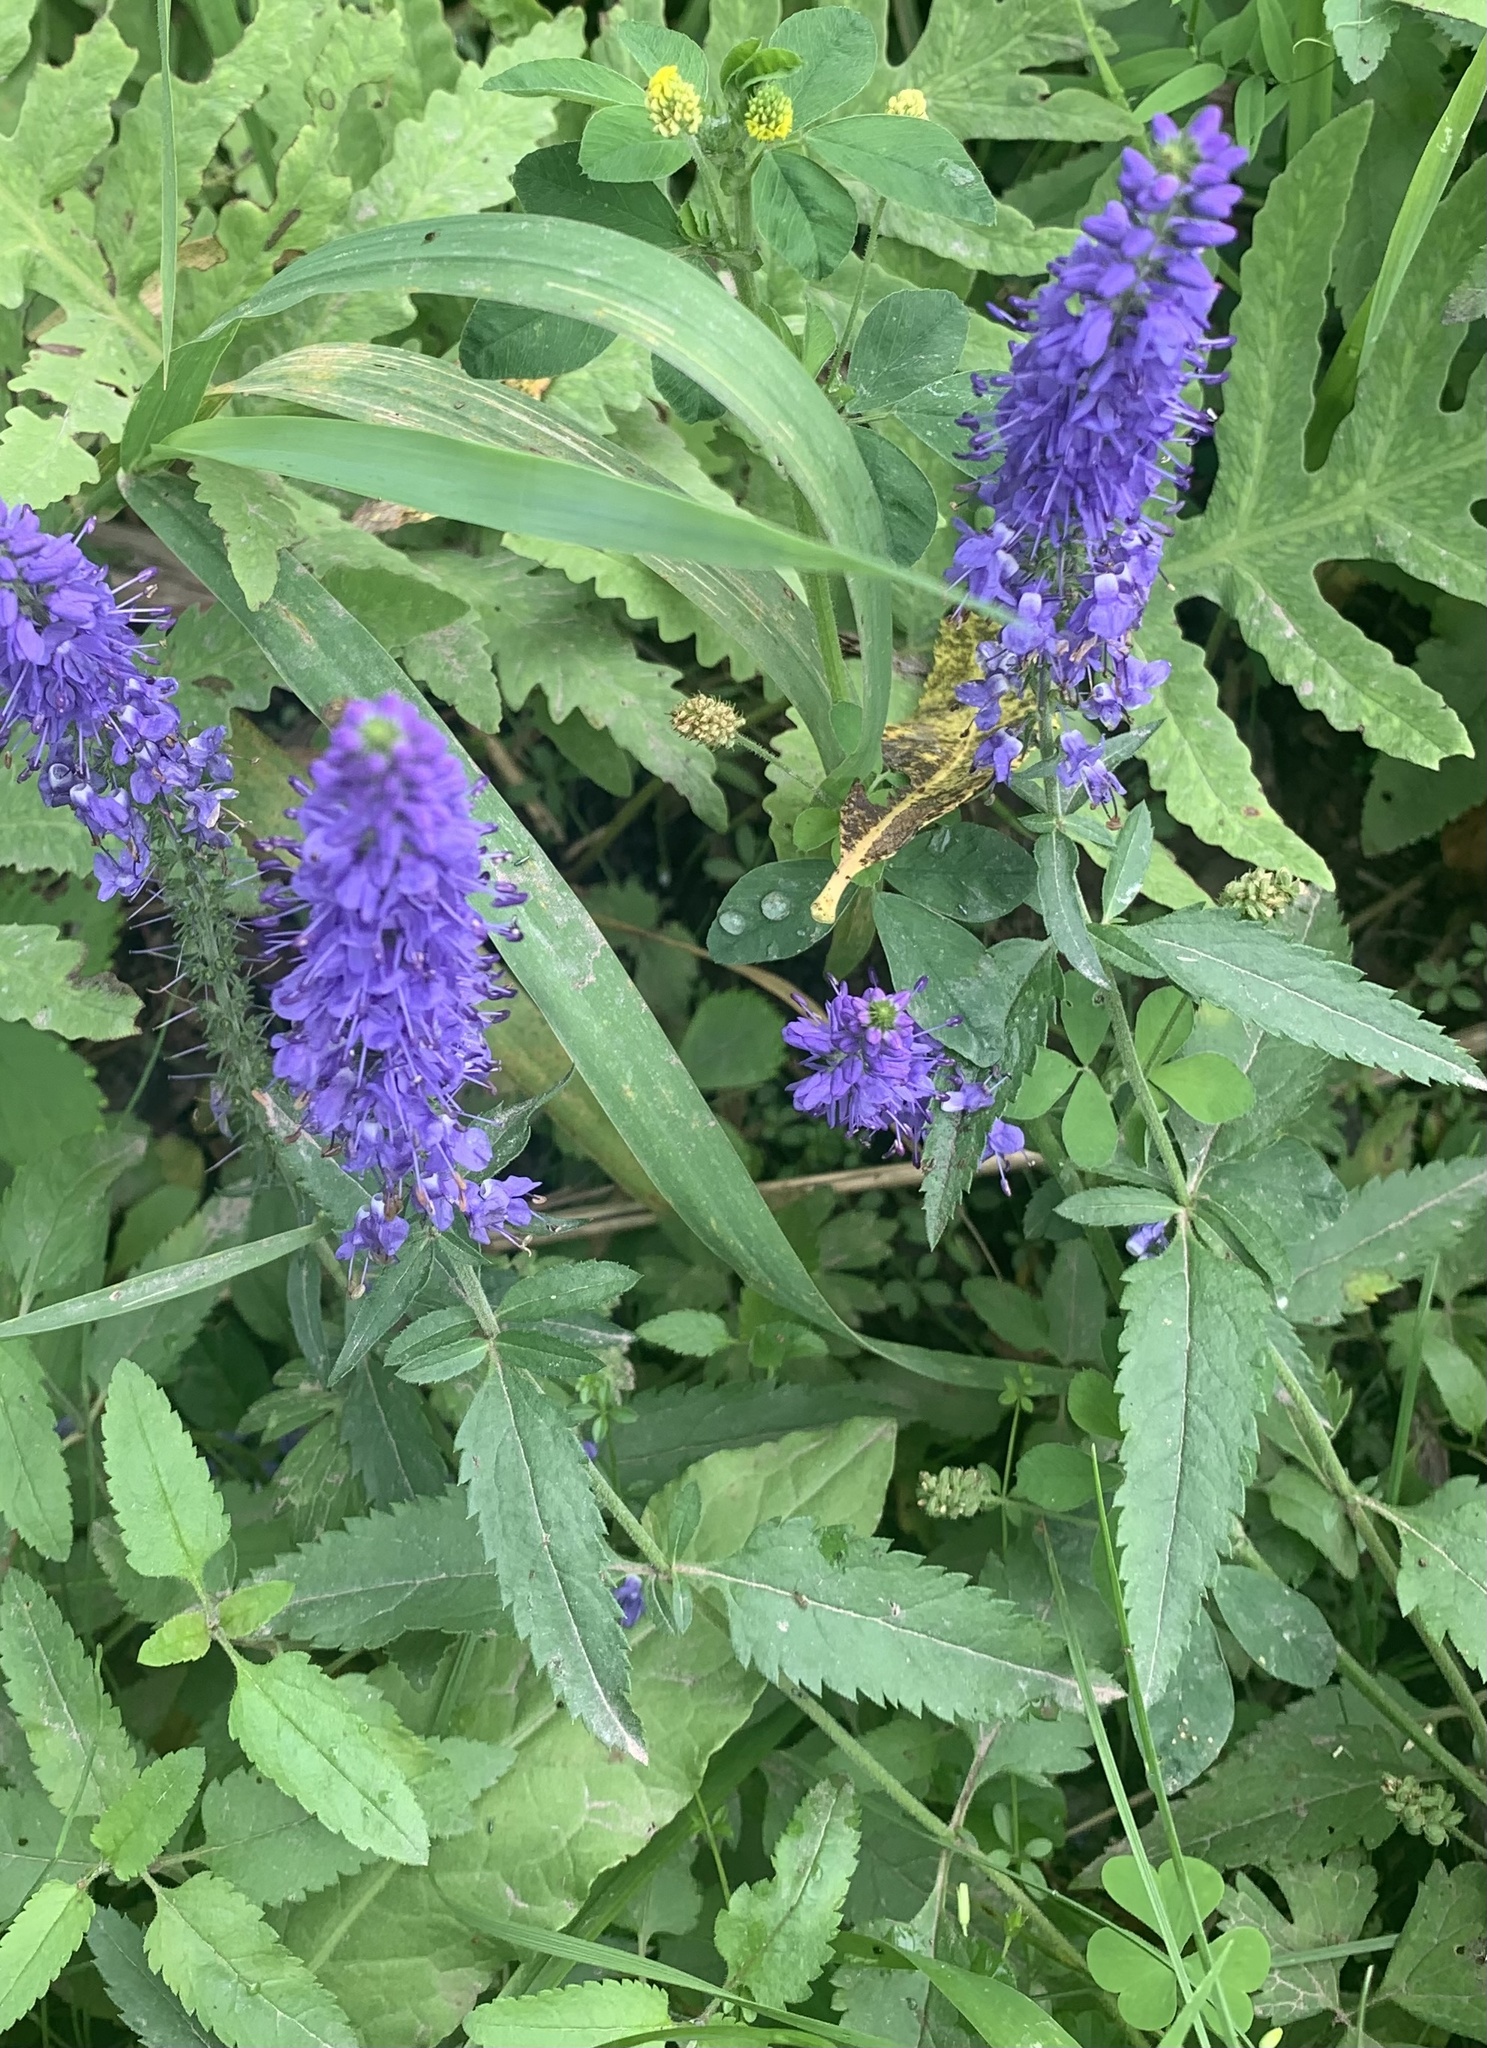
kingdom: Plantae
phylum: Tracheophyta
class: Magnoliopsida
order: Lamiales
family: Plantaginaceae
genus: Veronica
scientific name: Veronica longifolia
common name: Garden speedwell
